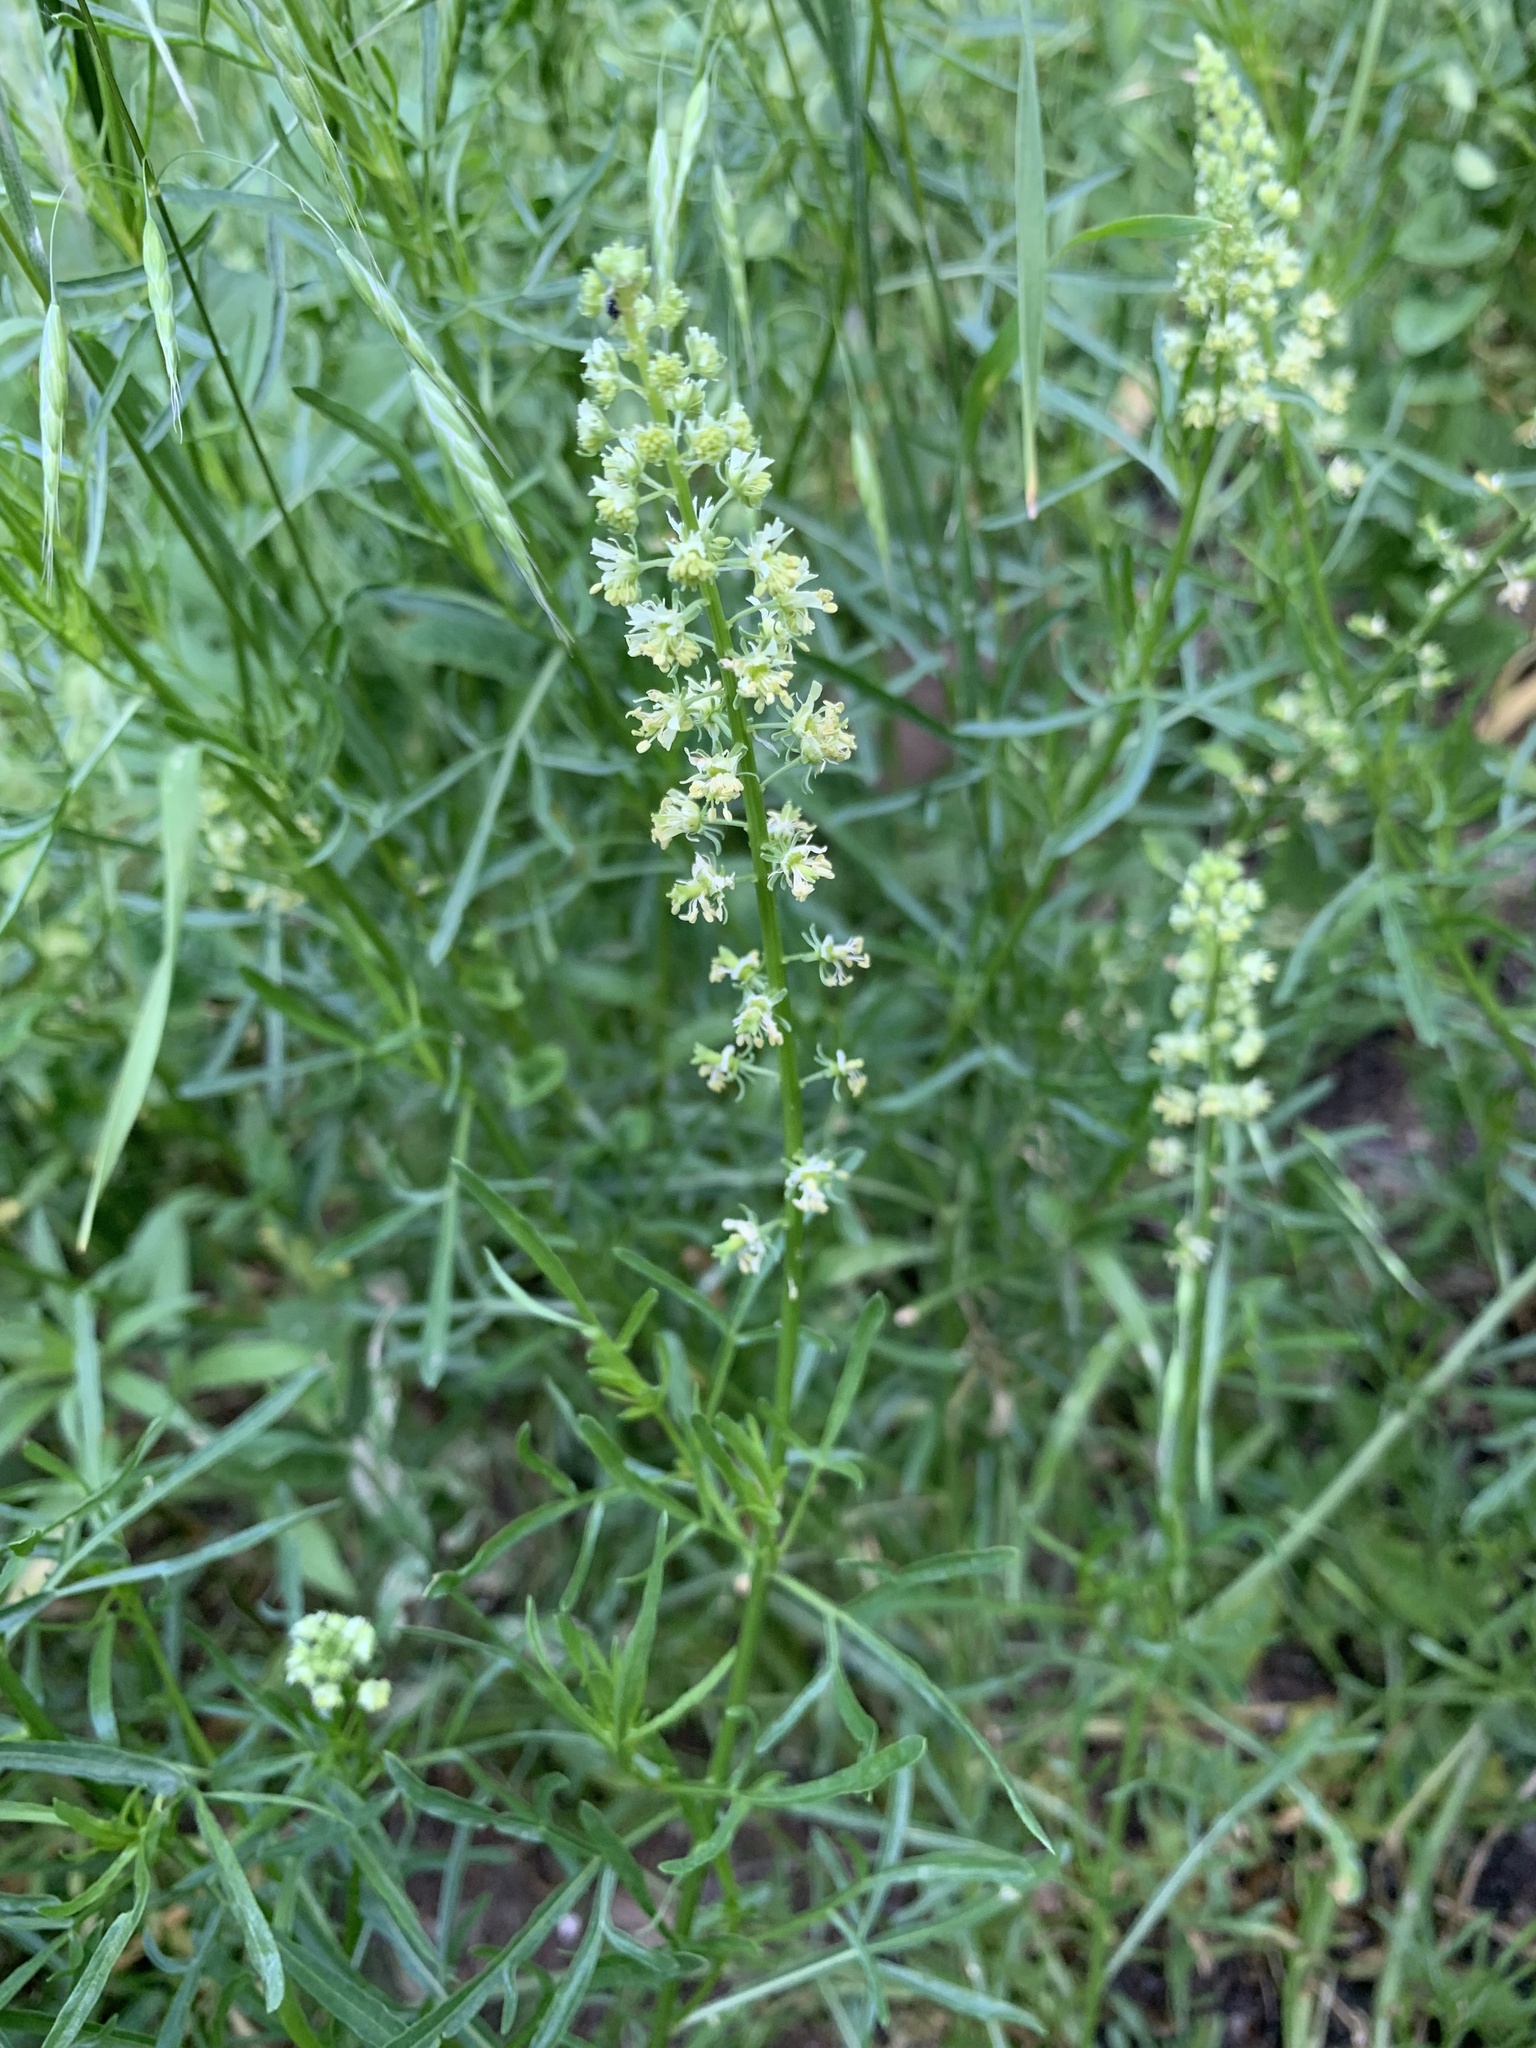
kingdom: Plantae
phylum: Tracheophyta
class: Magnoliopsida
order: Brassicales
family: Resedaceae
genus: Reseda
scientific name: Reseda lutea
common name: Wild mignonette
